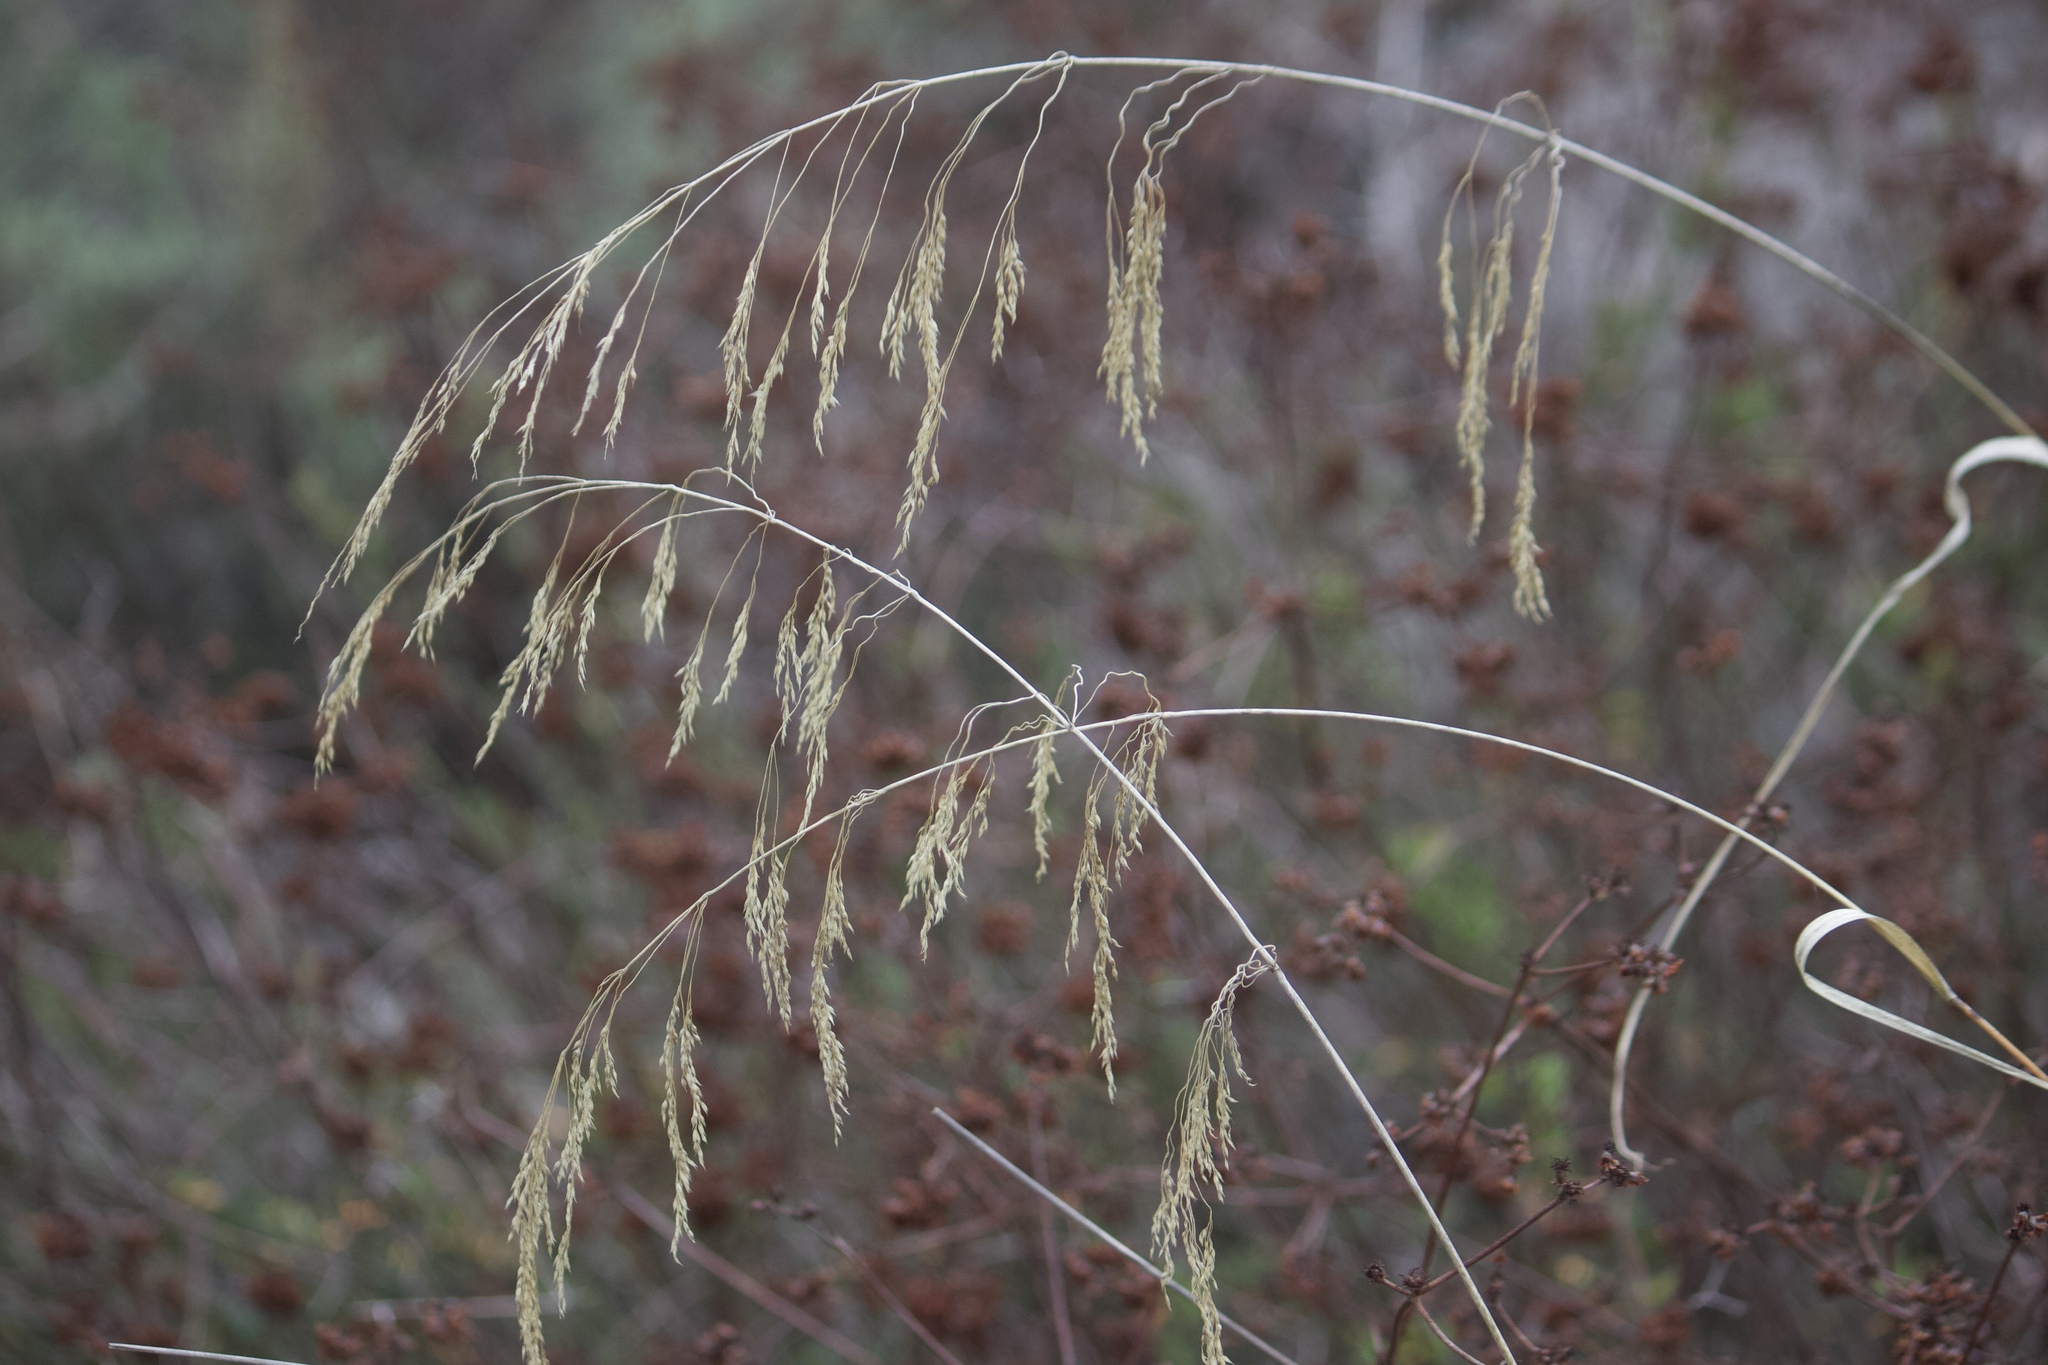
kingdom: Plantae
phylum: Tracheophyta
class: Liliopsida
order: Poales
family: Poaceae
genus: Oloptum
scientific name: Oloptum miliaceum
